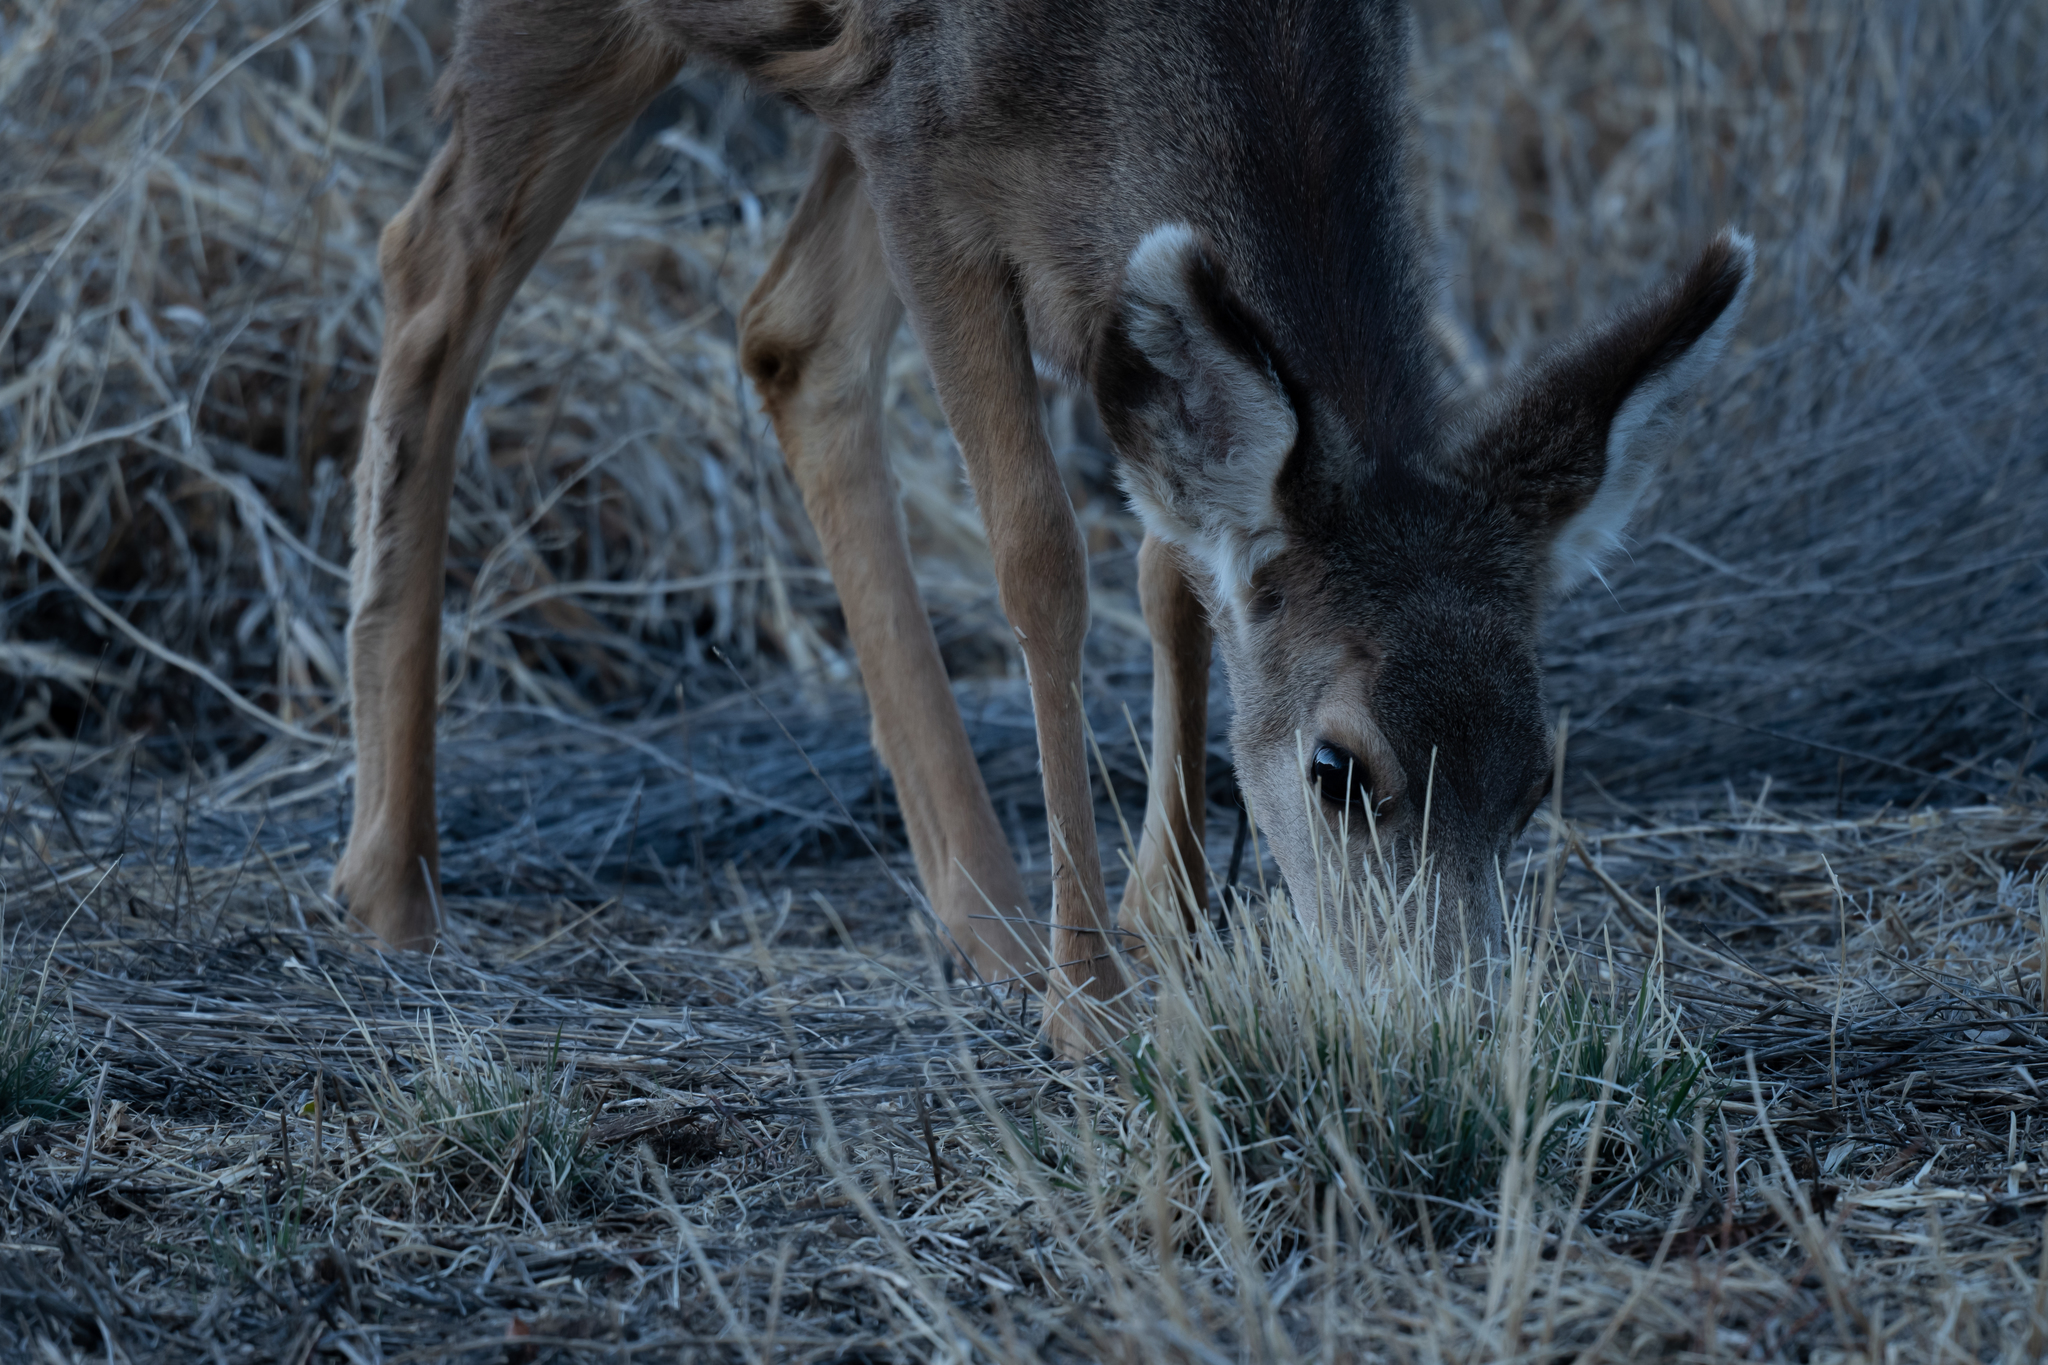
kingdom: Animalia
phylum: Chordata
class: Mammalia
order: Artiodactyla
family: Cervidae
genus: Odocoileus
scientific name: Odocoileus hemionus
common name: Mule deer
